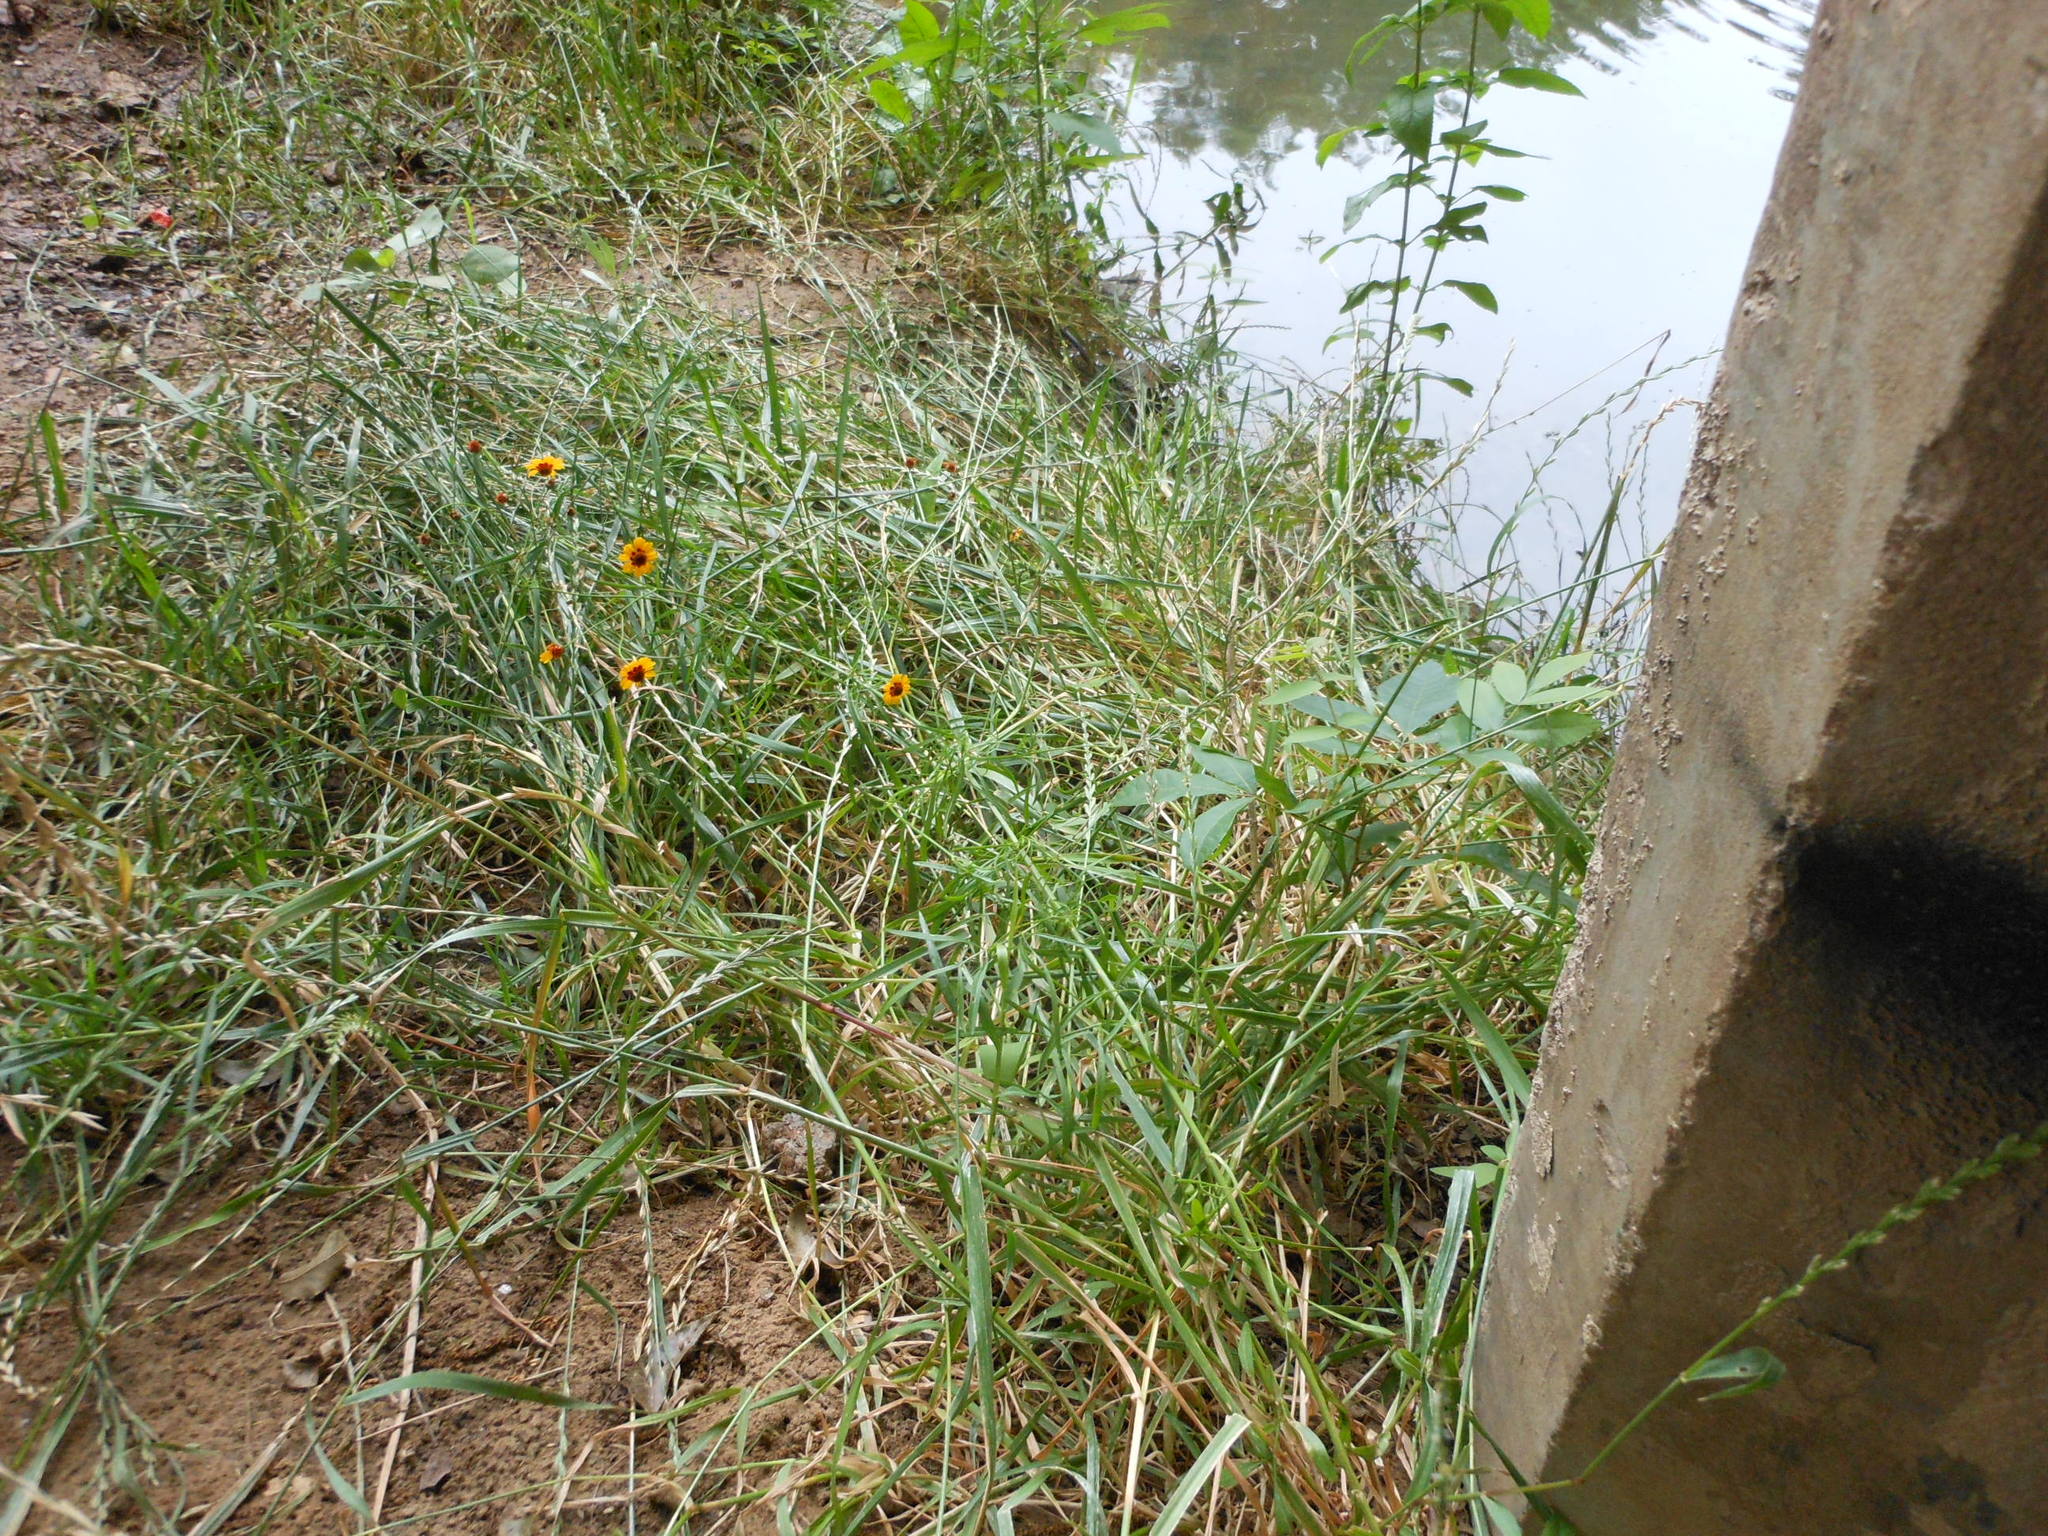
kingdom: Plantae
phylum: Tracheophyta
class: Magnoliopsida
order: Asterales
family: Asteraceae
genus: Coreopsis
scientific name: Coreopsis tinctoria
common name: Garden tickseed
